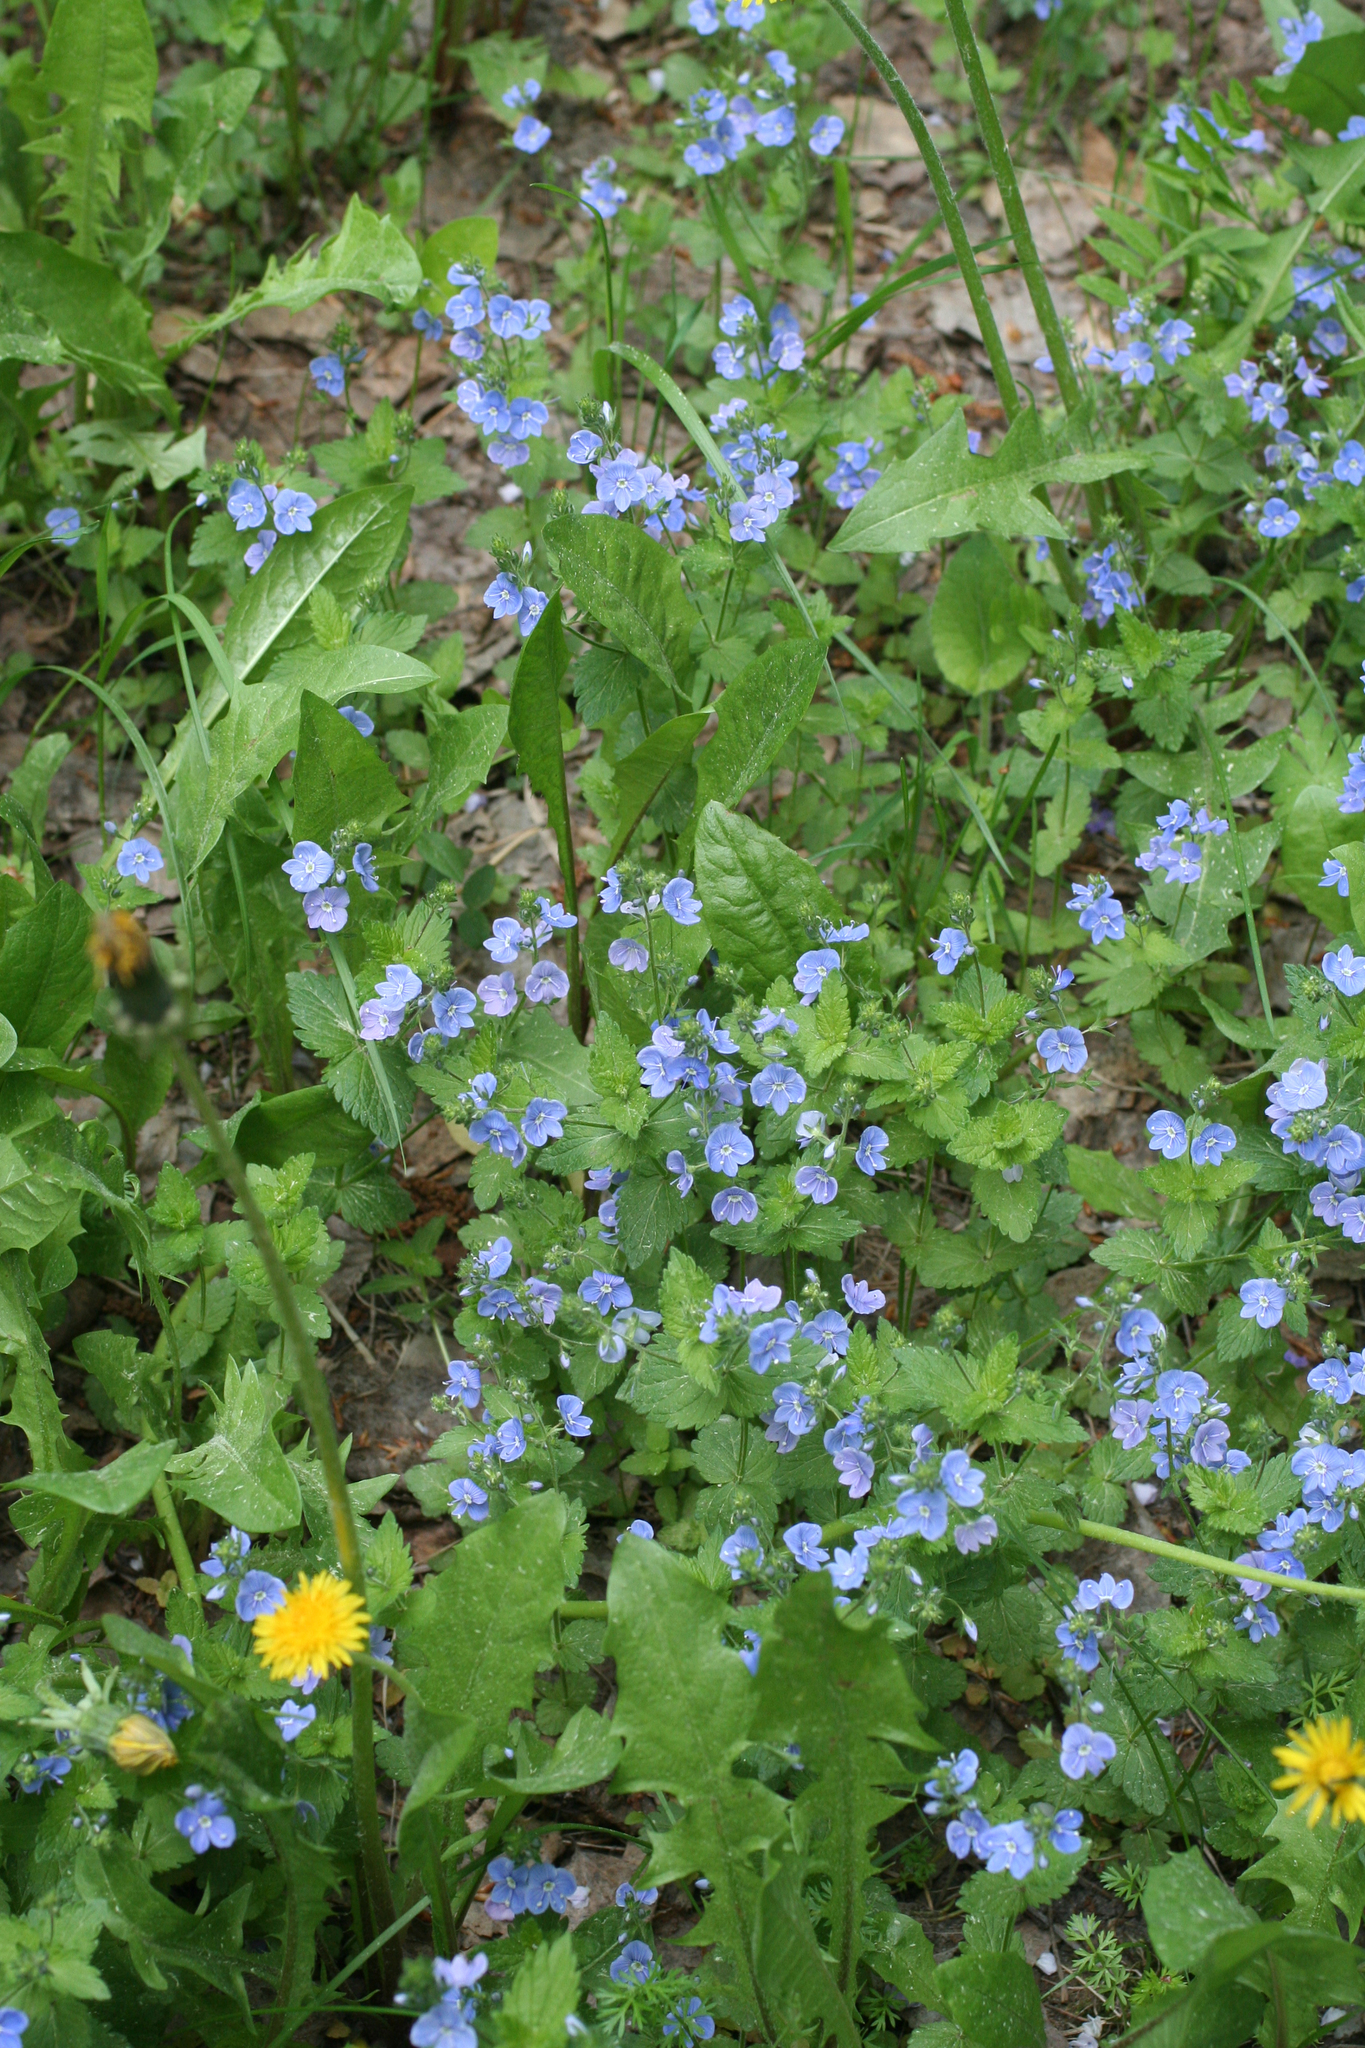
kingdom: Plantae
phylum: Tracheophyta
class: Magnoliopsida
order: Lamiales
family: Plantaginaceae
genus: Veronica
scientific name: Veronica chamaedrys
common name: Germander speedwell
